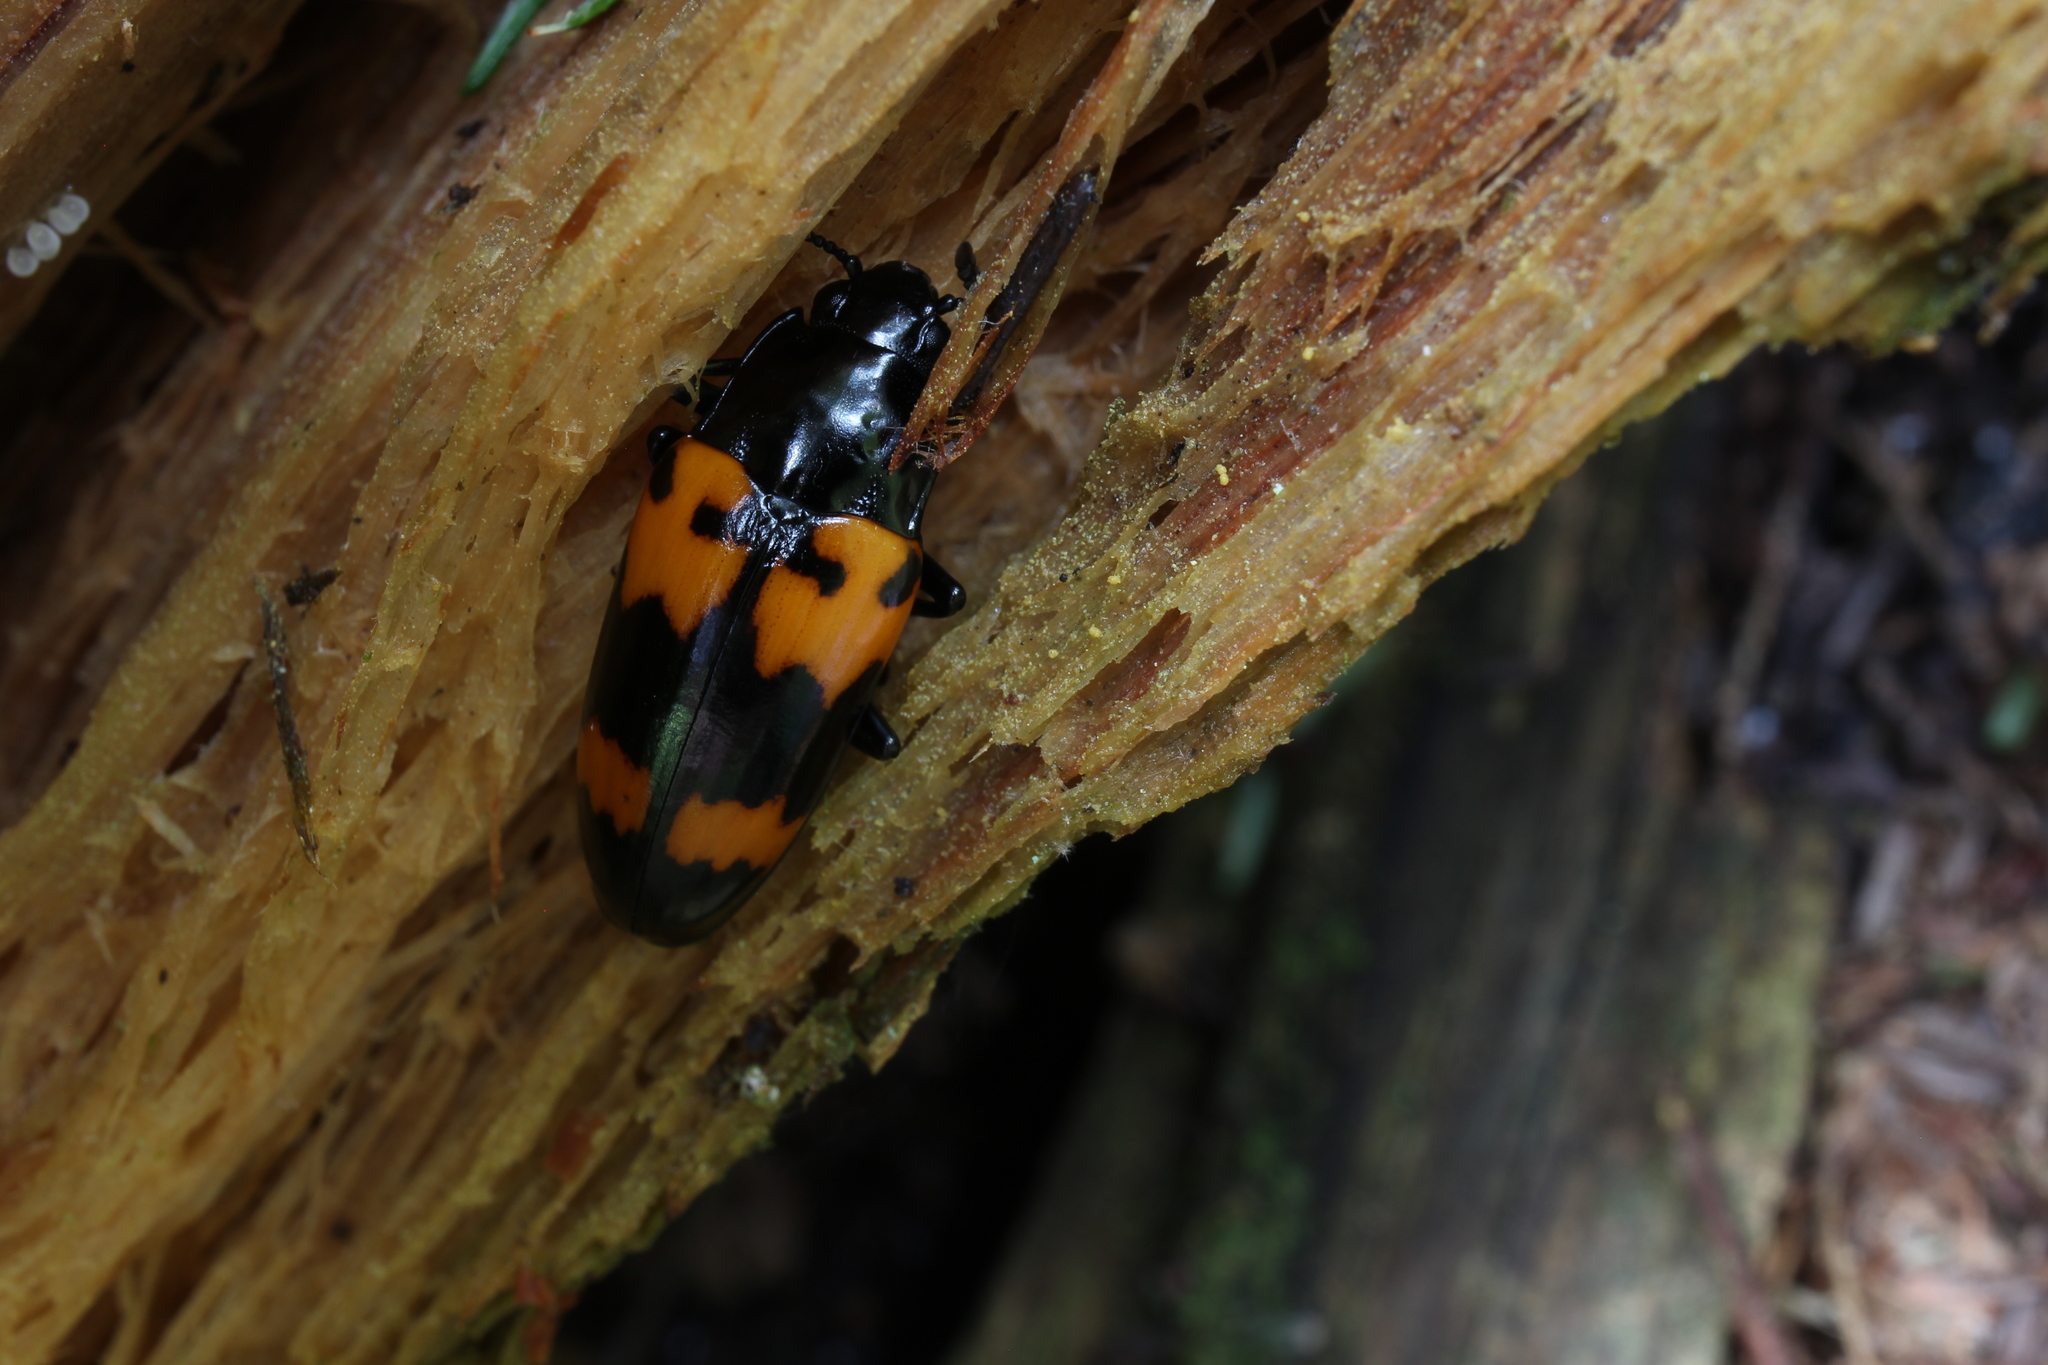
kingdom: Animalia
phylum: Arthropoda
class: Insecta
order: Coleoptera
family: Erotylidae
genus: Megalodacne
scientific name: Megalodacne heros
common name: Pleasing fungus beetle
